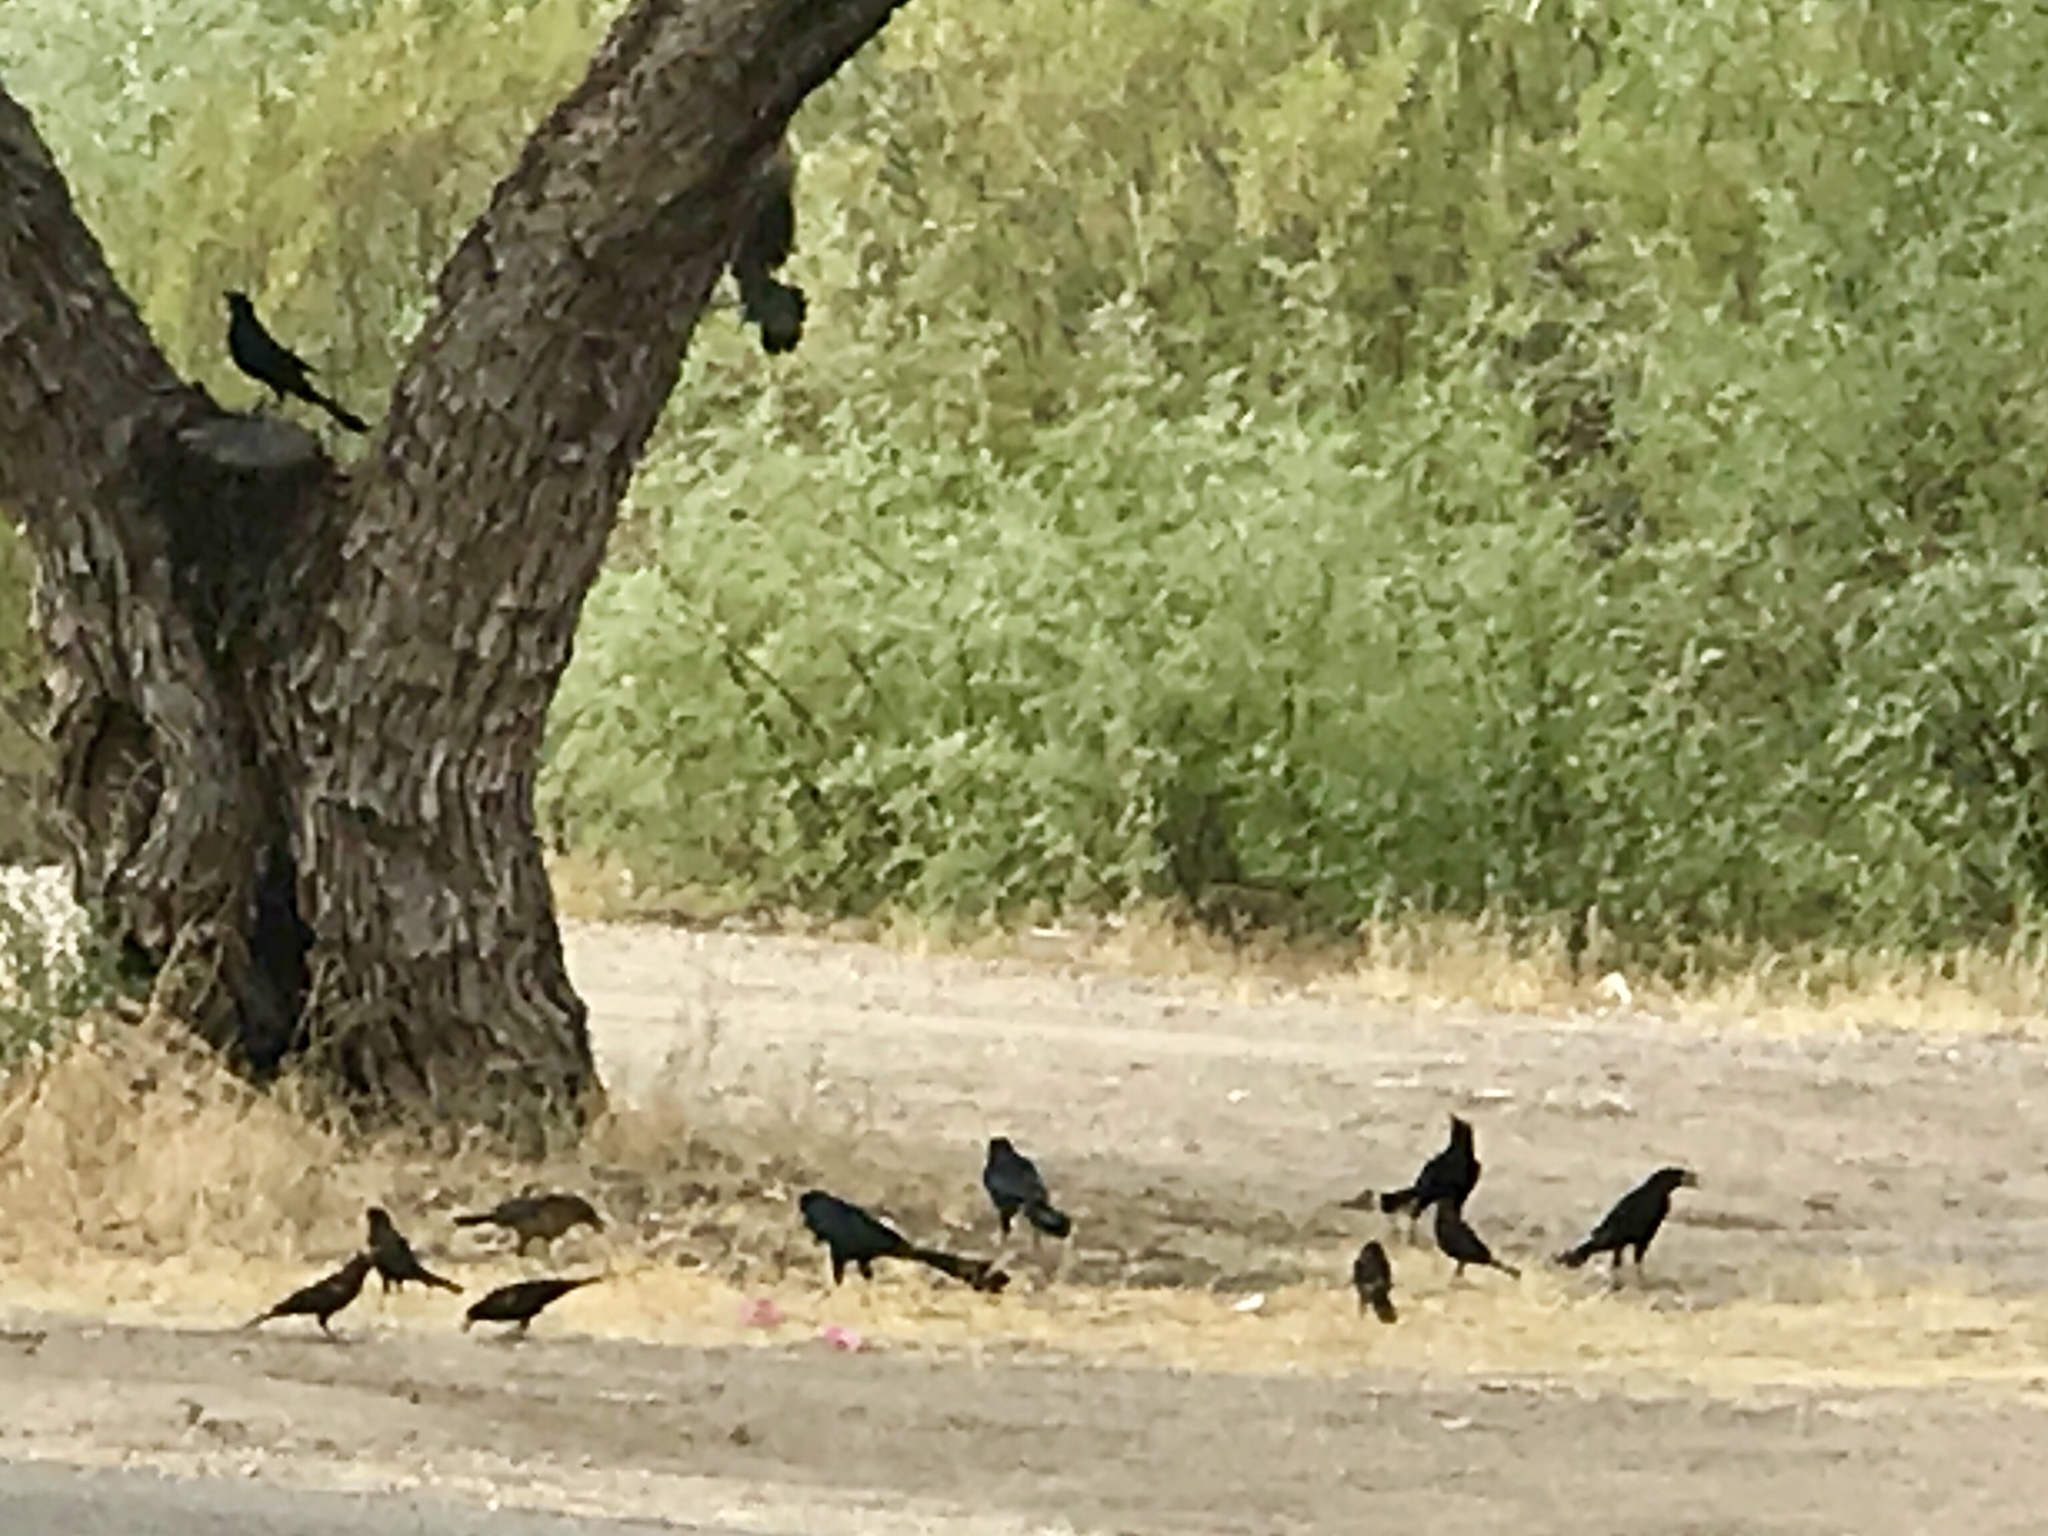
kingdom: Animalia
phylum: Chordata
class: Aves
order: Passeriformes
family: Icteridae
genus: Quiscalus
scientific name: Quiscalus mexicanus
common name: Great-tailed grackle
